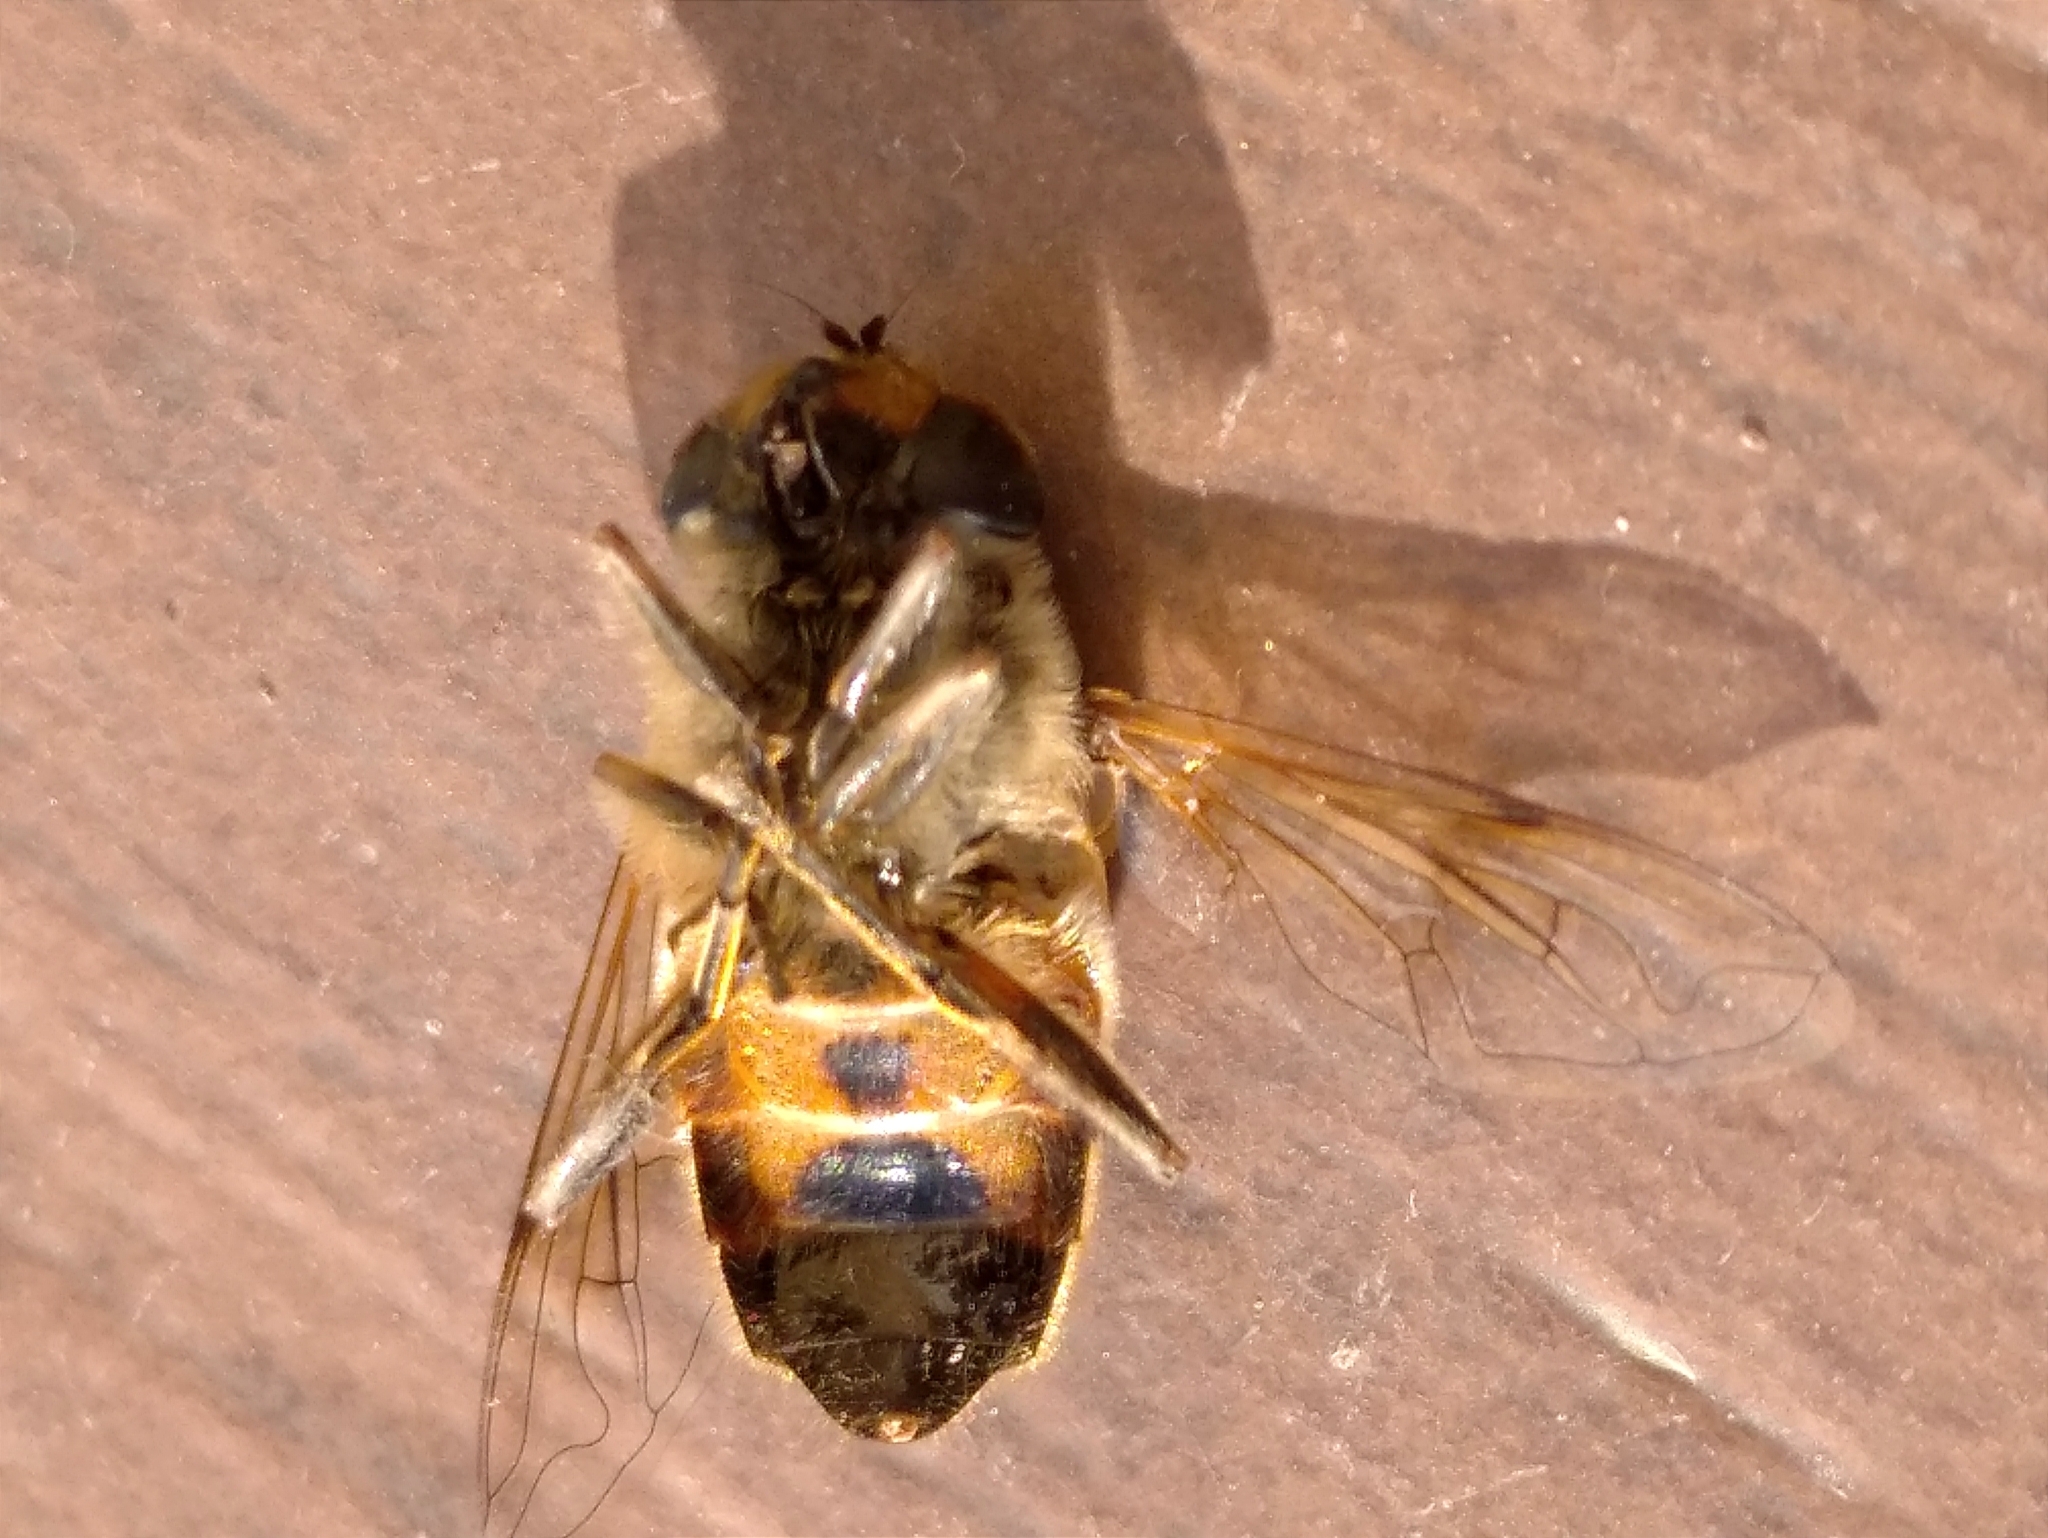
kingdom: Animalia
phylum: Arthropoda
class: Insecta
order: Diptera
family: Syrphidae
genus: Eristalis
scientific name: Eristalis tenax
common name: Drone fly
